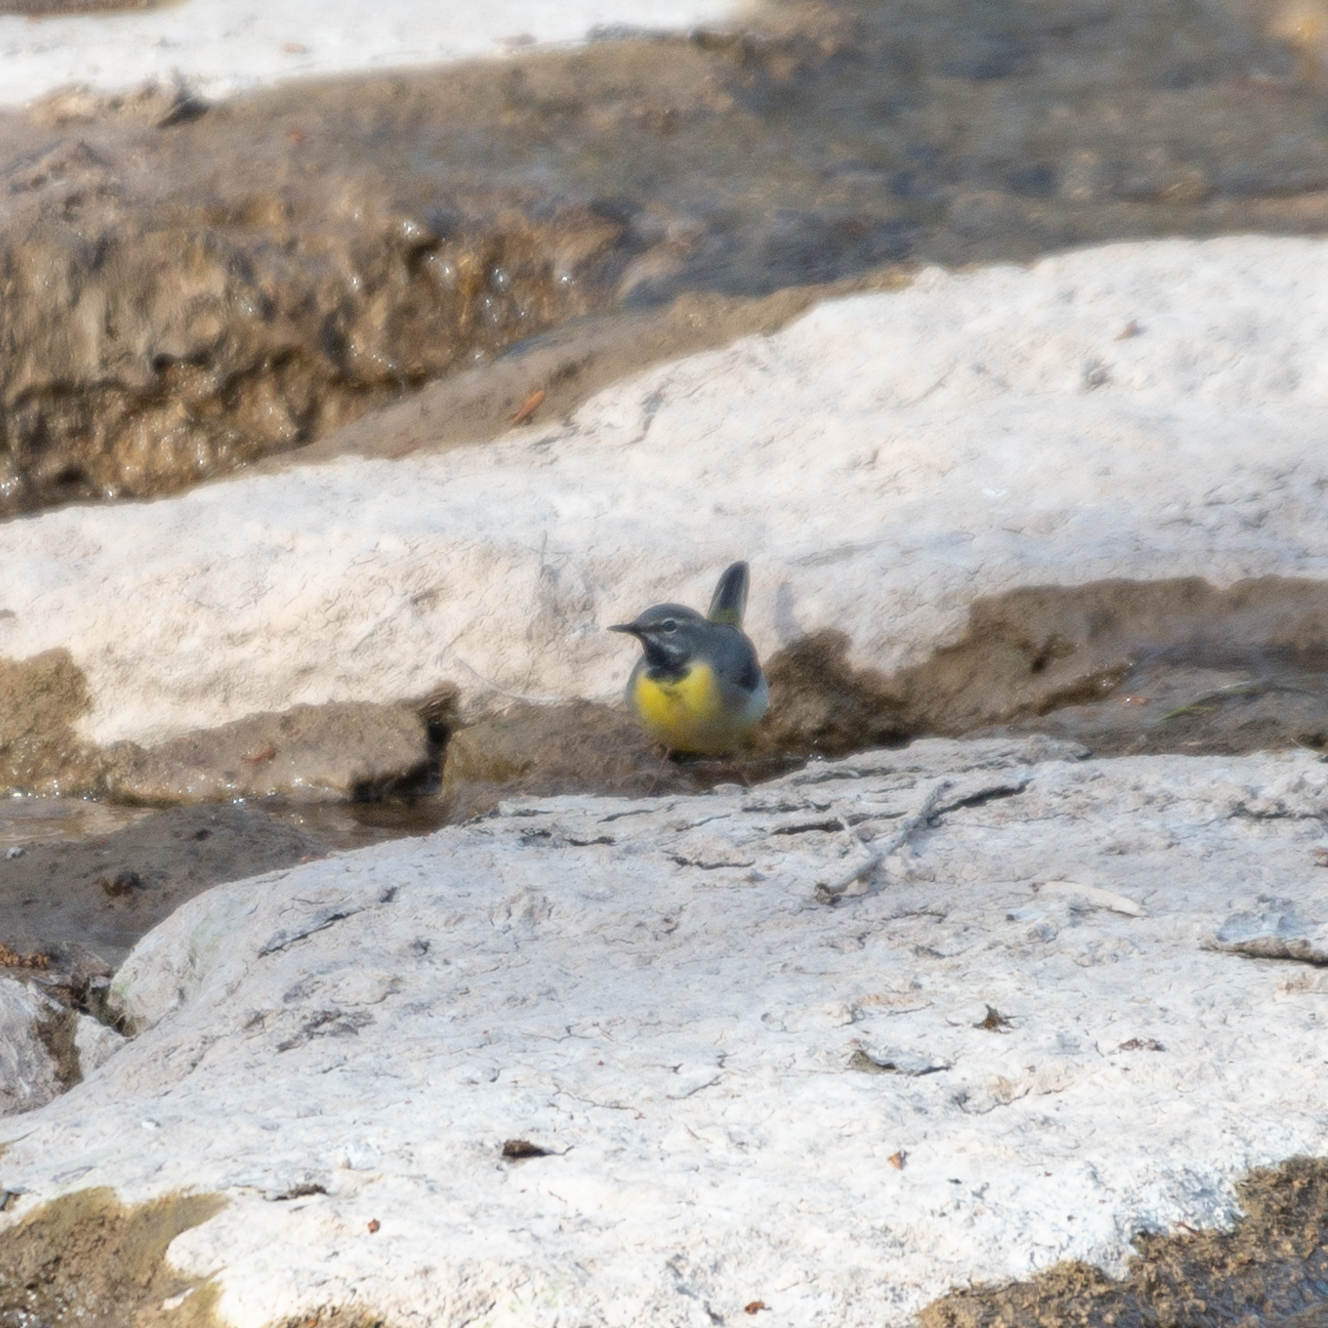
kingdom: Animalia
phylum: Chordata
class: Aves
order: Passeriformes
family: Motacillidae
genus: Motacilla
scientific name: Motacilla cinerea
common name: Grey wagtail
